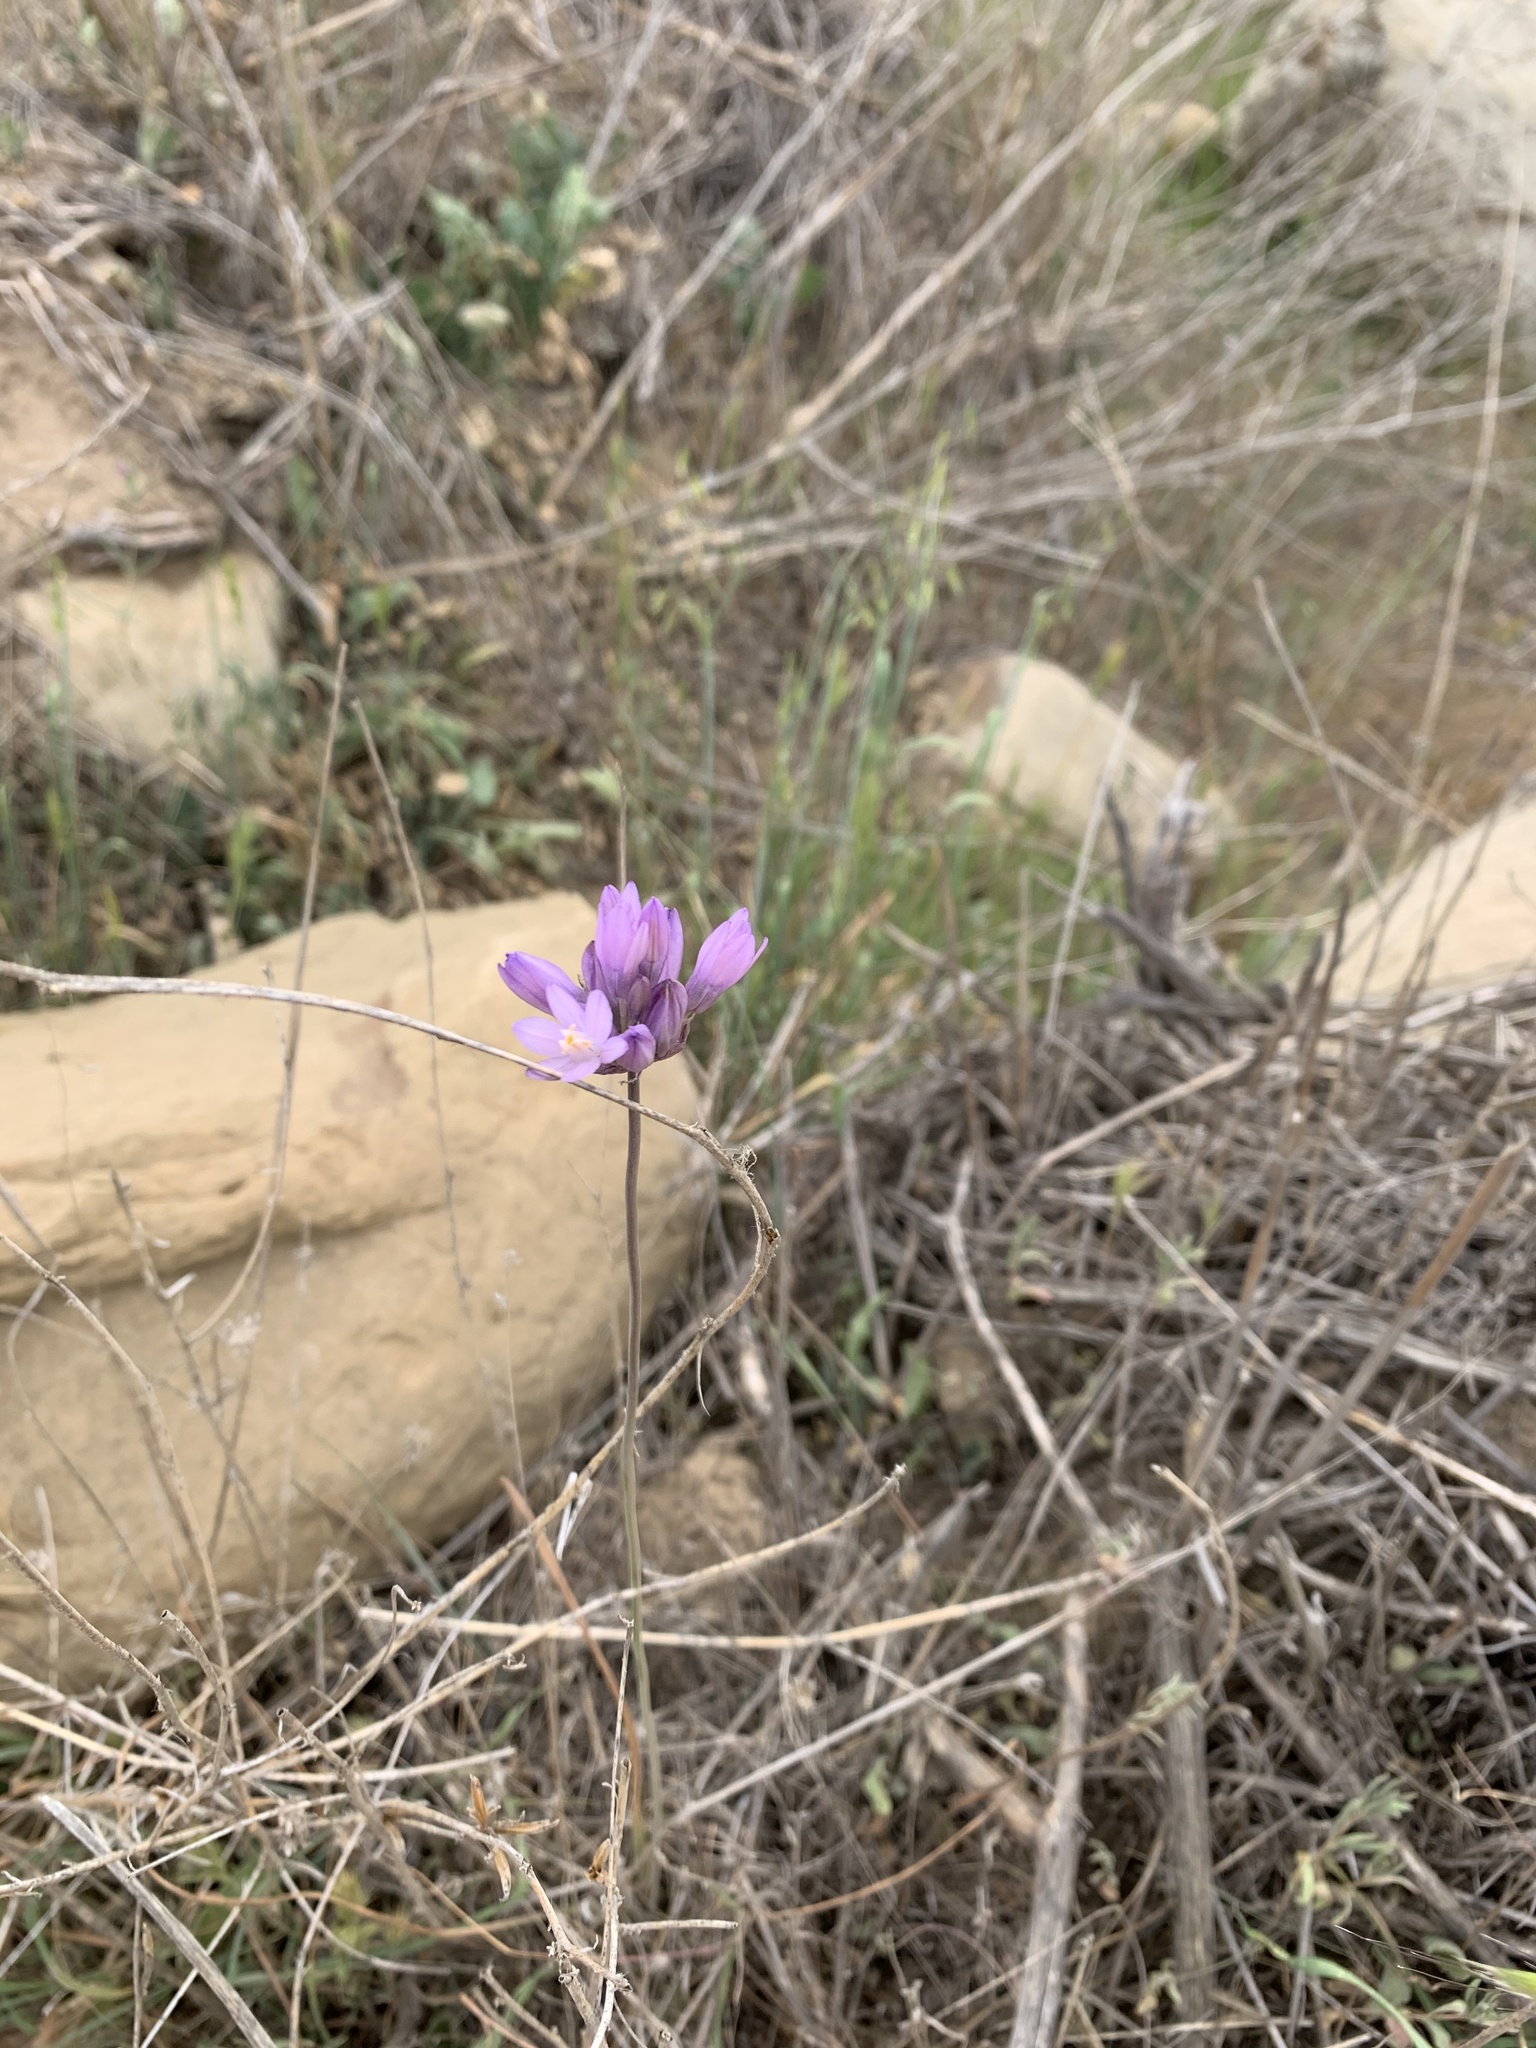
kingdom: Plantae
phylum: Tracheophyta
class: Liliopsida
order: Asparagales
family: Asparagaceae
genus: Dipterostemon
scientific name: Dipterostemon capitatus
